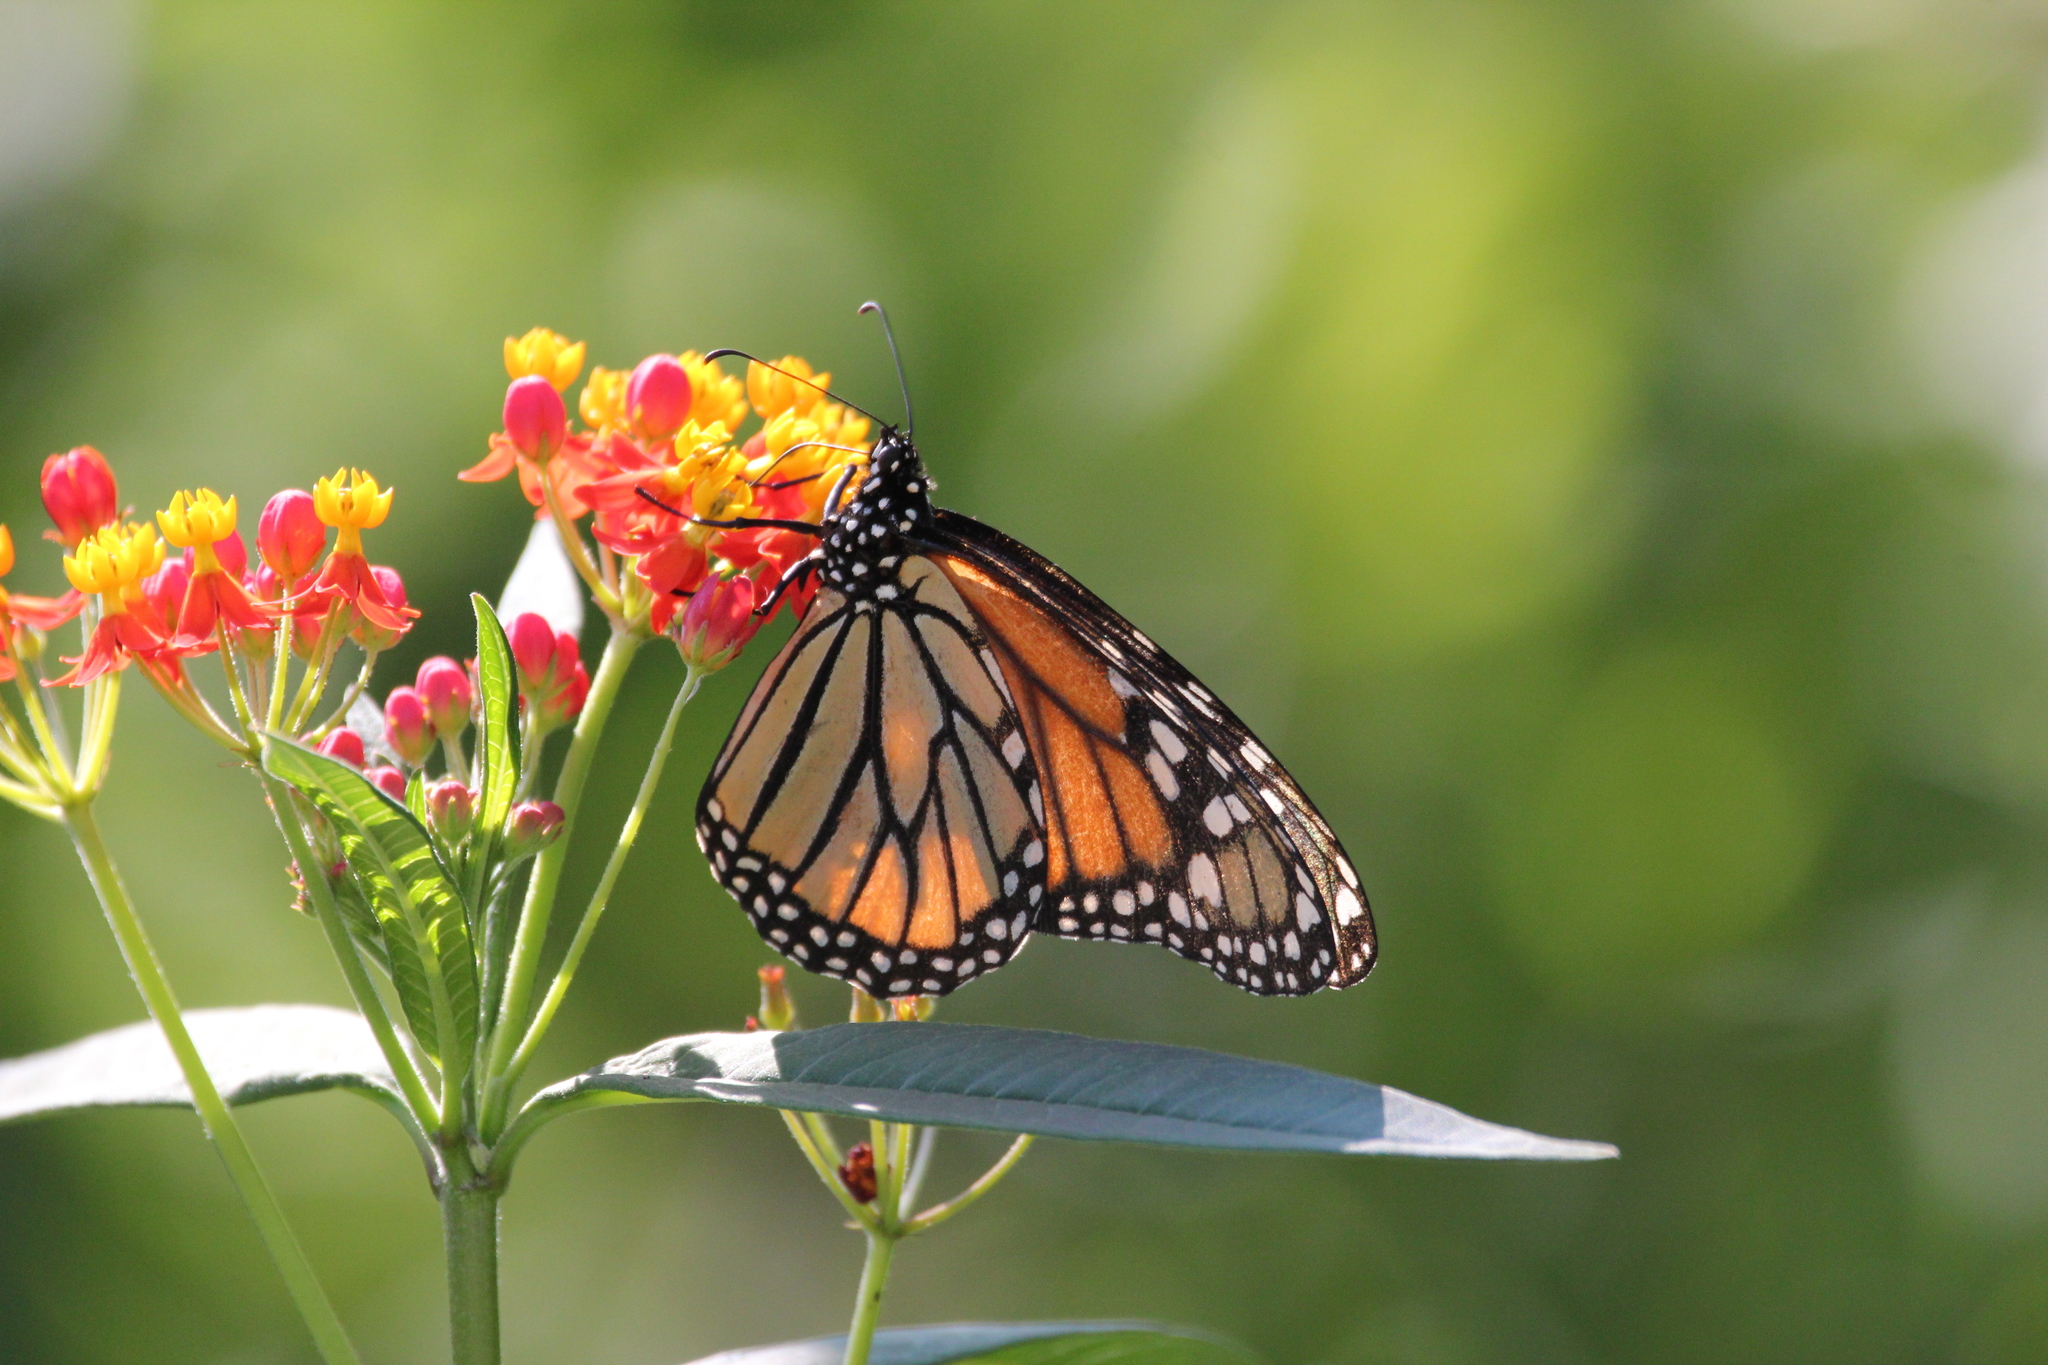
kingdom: Animalia
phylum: Arthropoda
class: Insecta
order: Lepidoptera
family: Nymphalidae
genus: Danaus
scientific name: Danaus plexippus
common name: Monarch
